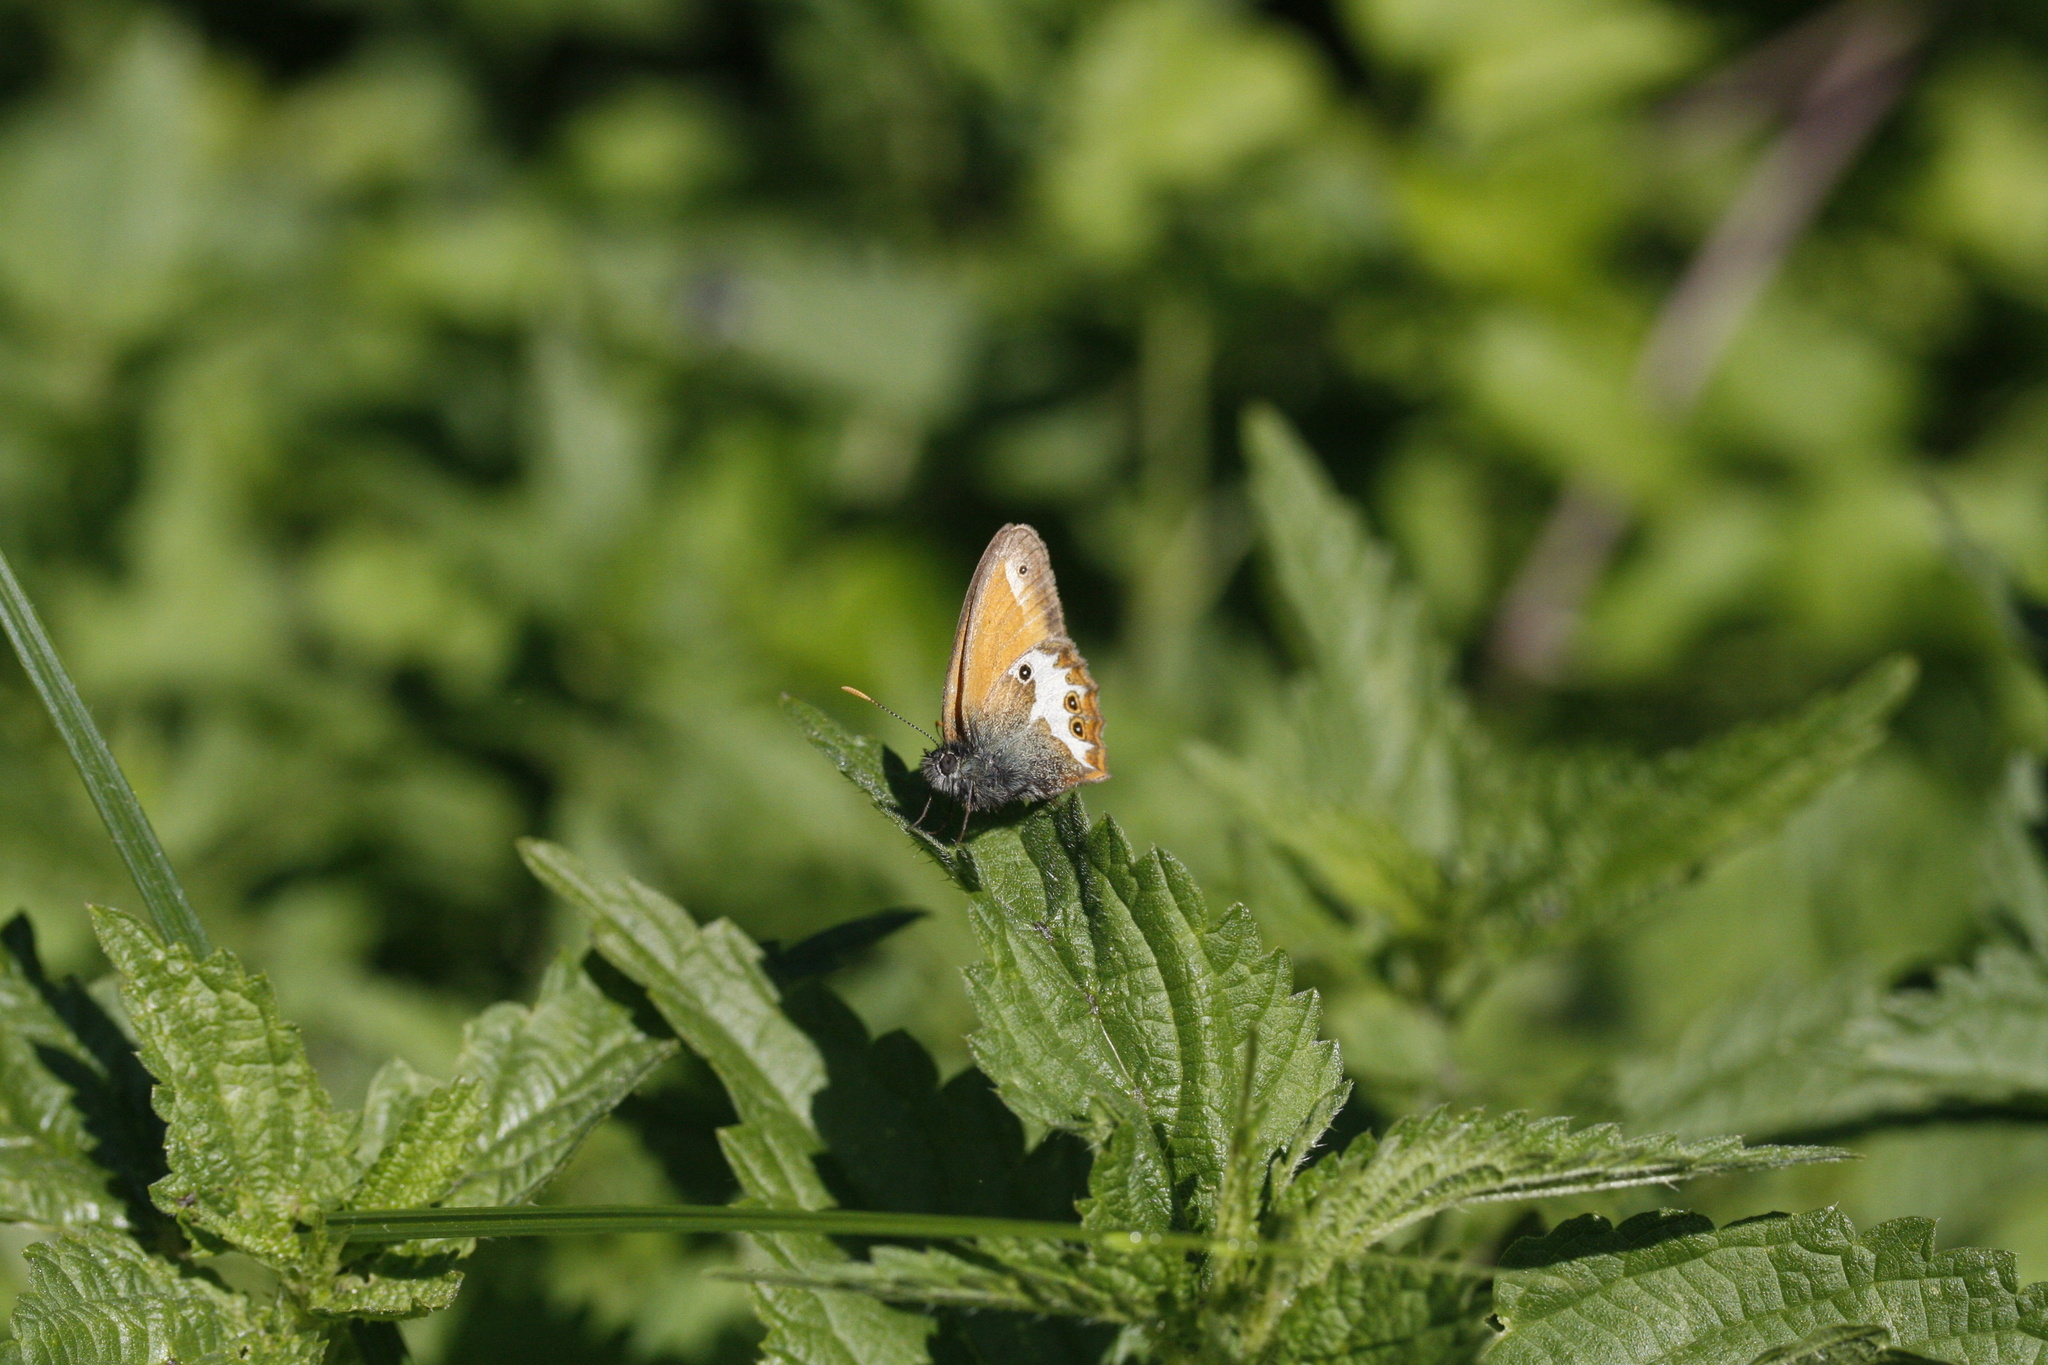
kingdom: Animalia
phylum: Arthropoda
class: Insecta
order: Lepidoptera
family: Nymphalidae
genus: Coenonympha
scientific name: Coenonympha arcania
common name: Pearly heath
